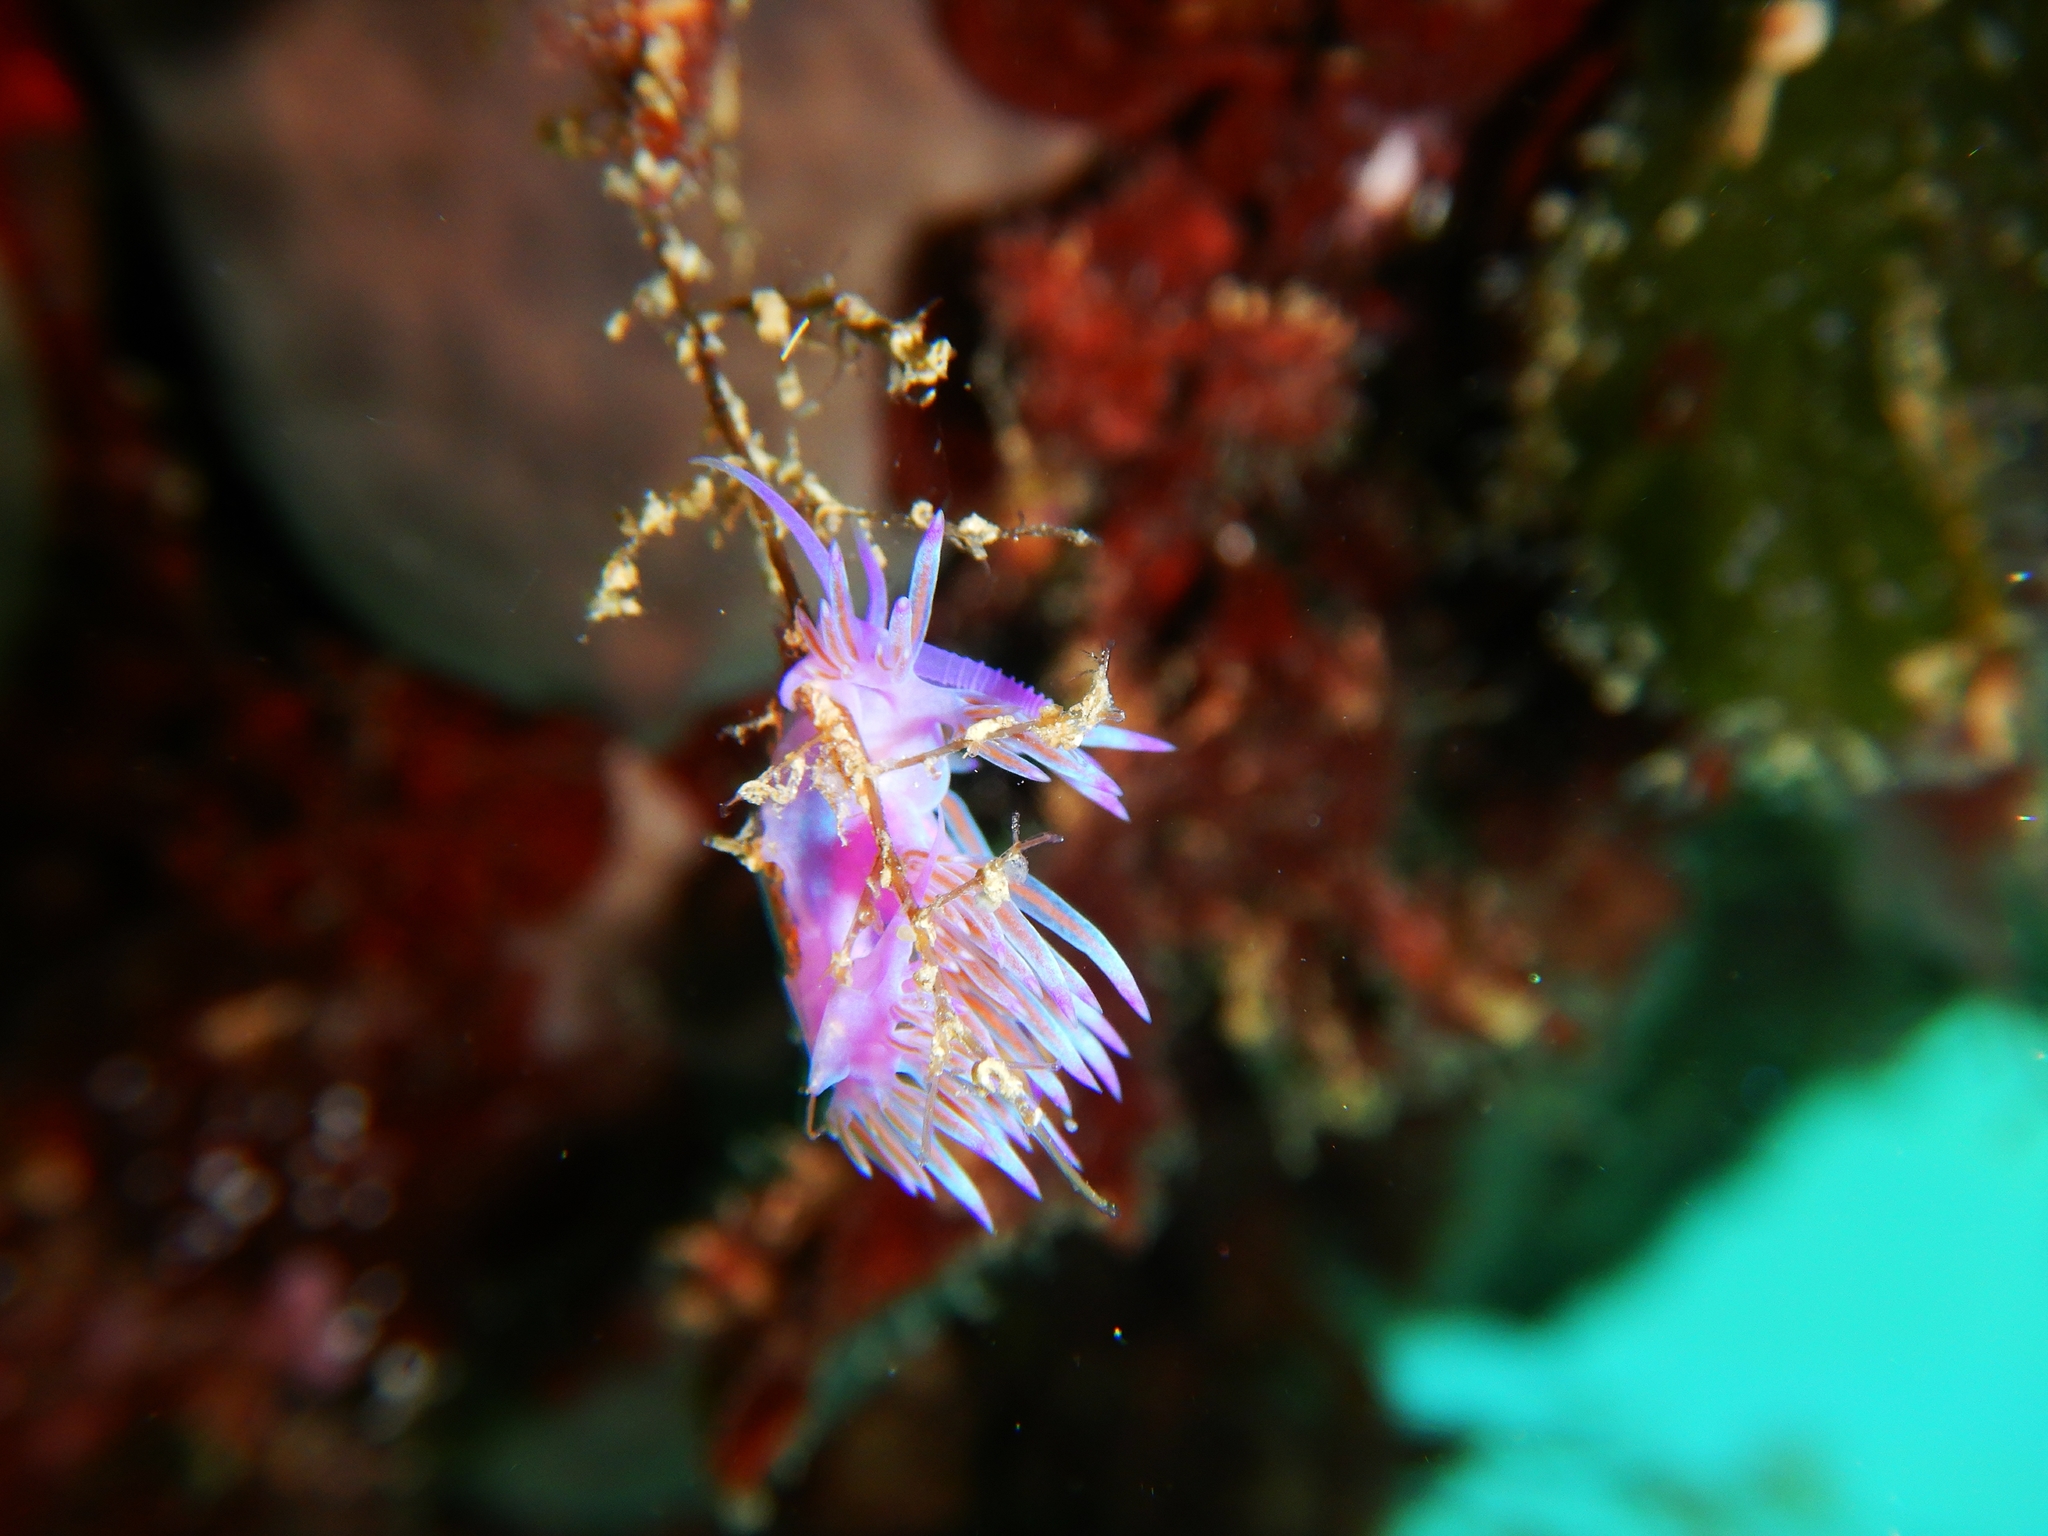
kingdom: Animalia
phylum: Mollusca
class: Gastropoda
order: Nudibranchia
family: Flabellinidae
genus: Flabellina
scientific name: Flabellina affinis
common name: Mediterranean violet aeolid
